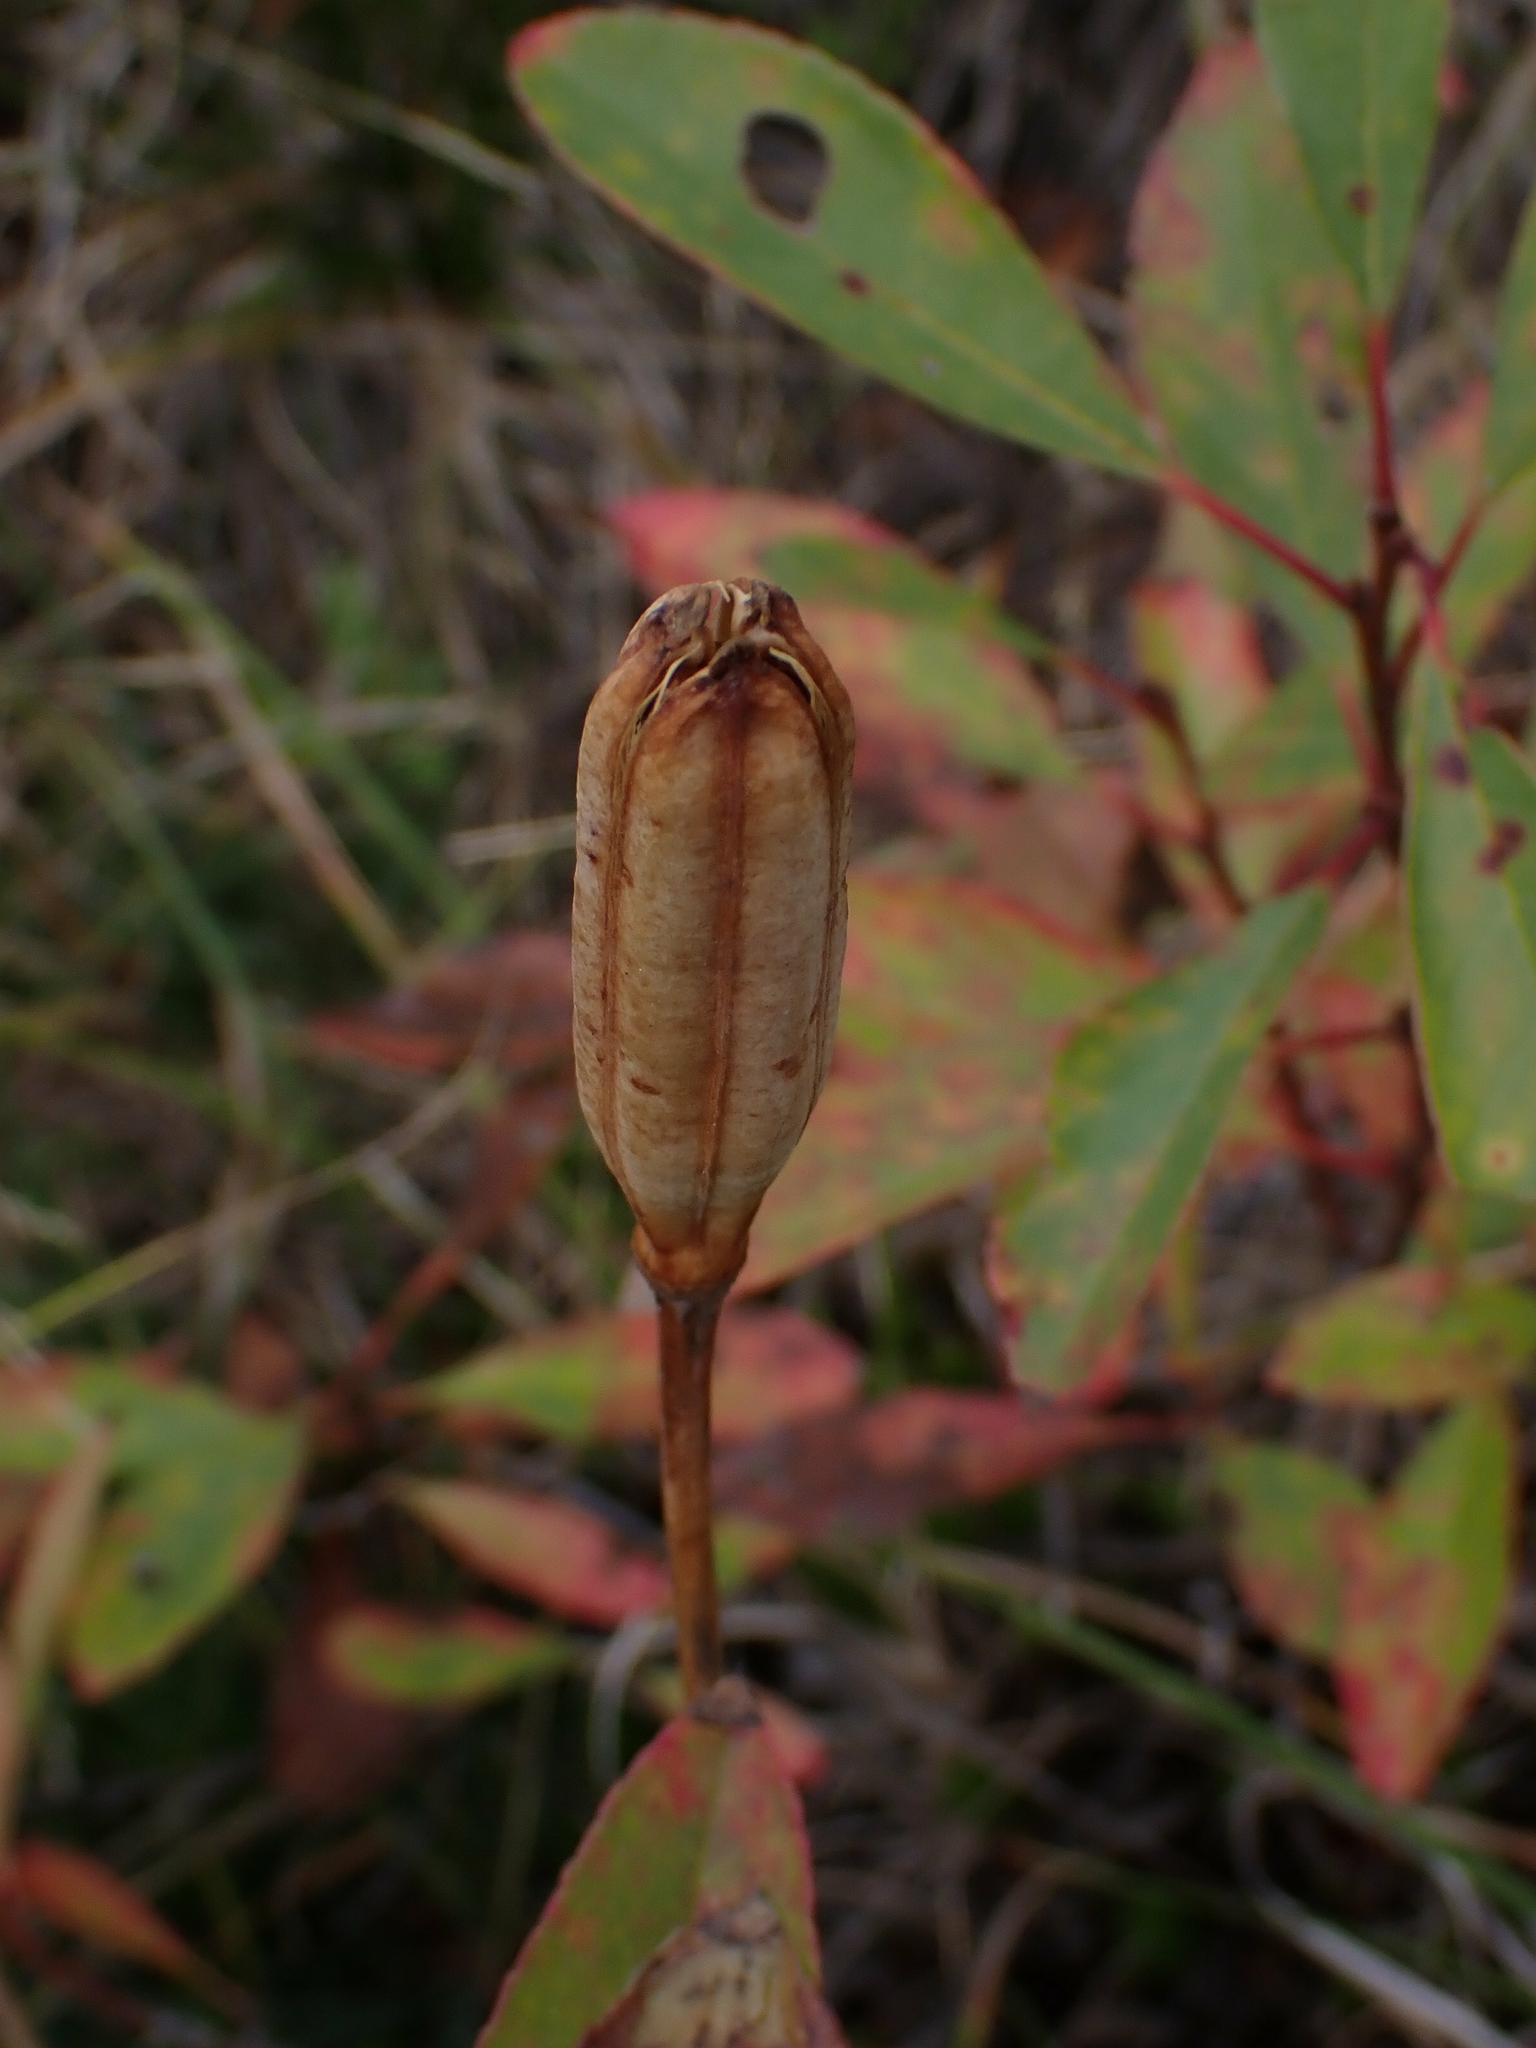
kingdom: Plantae
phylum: Tracheophyta
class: Liliopsida
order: Liliales
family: Liliaceae
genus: Lilium
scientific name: Lilium philadelphicum
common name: Red lily
